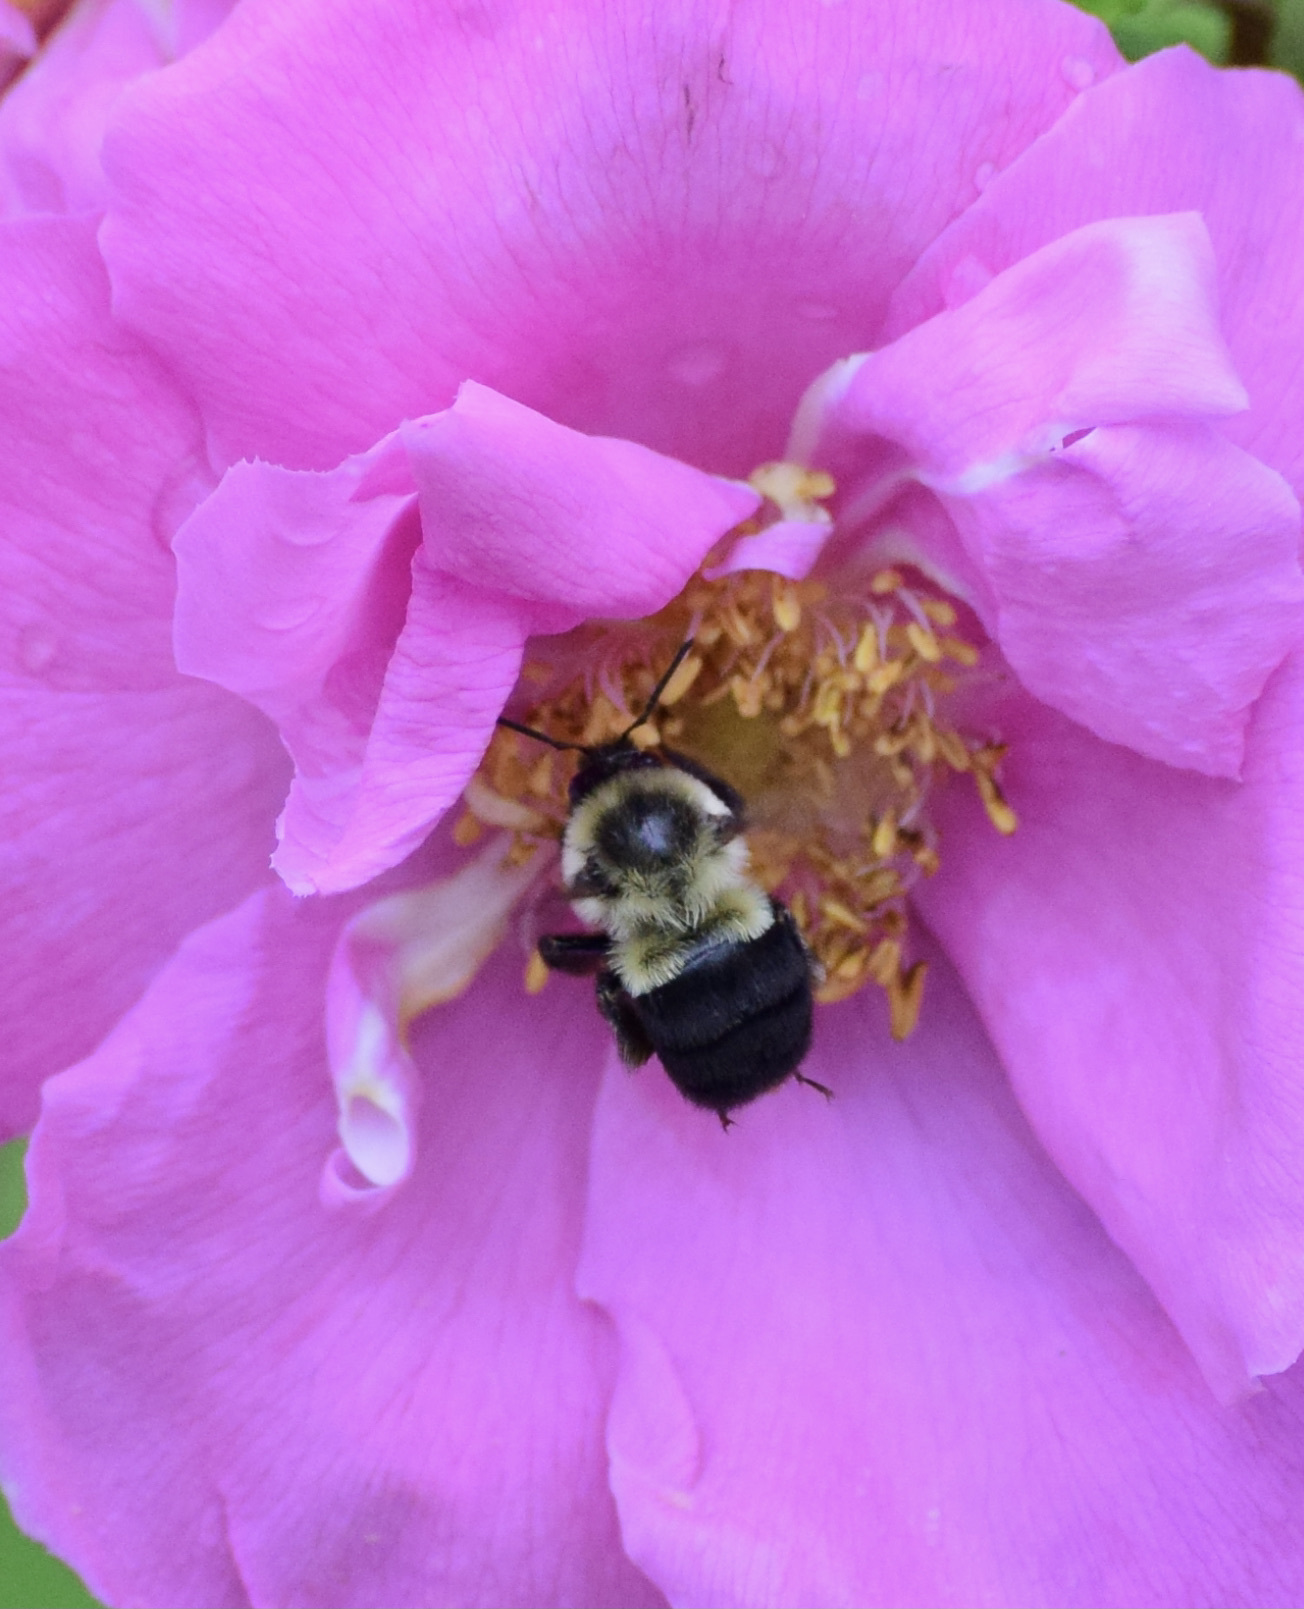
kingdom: Animalia
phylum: Arthropoda
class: Insecta
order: Hymenoptera
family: Apidae
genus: Bombus
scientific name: Bombus impatiens
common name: Common eastern bumble bee
